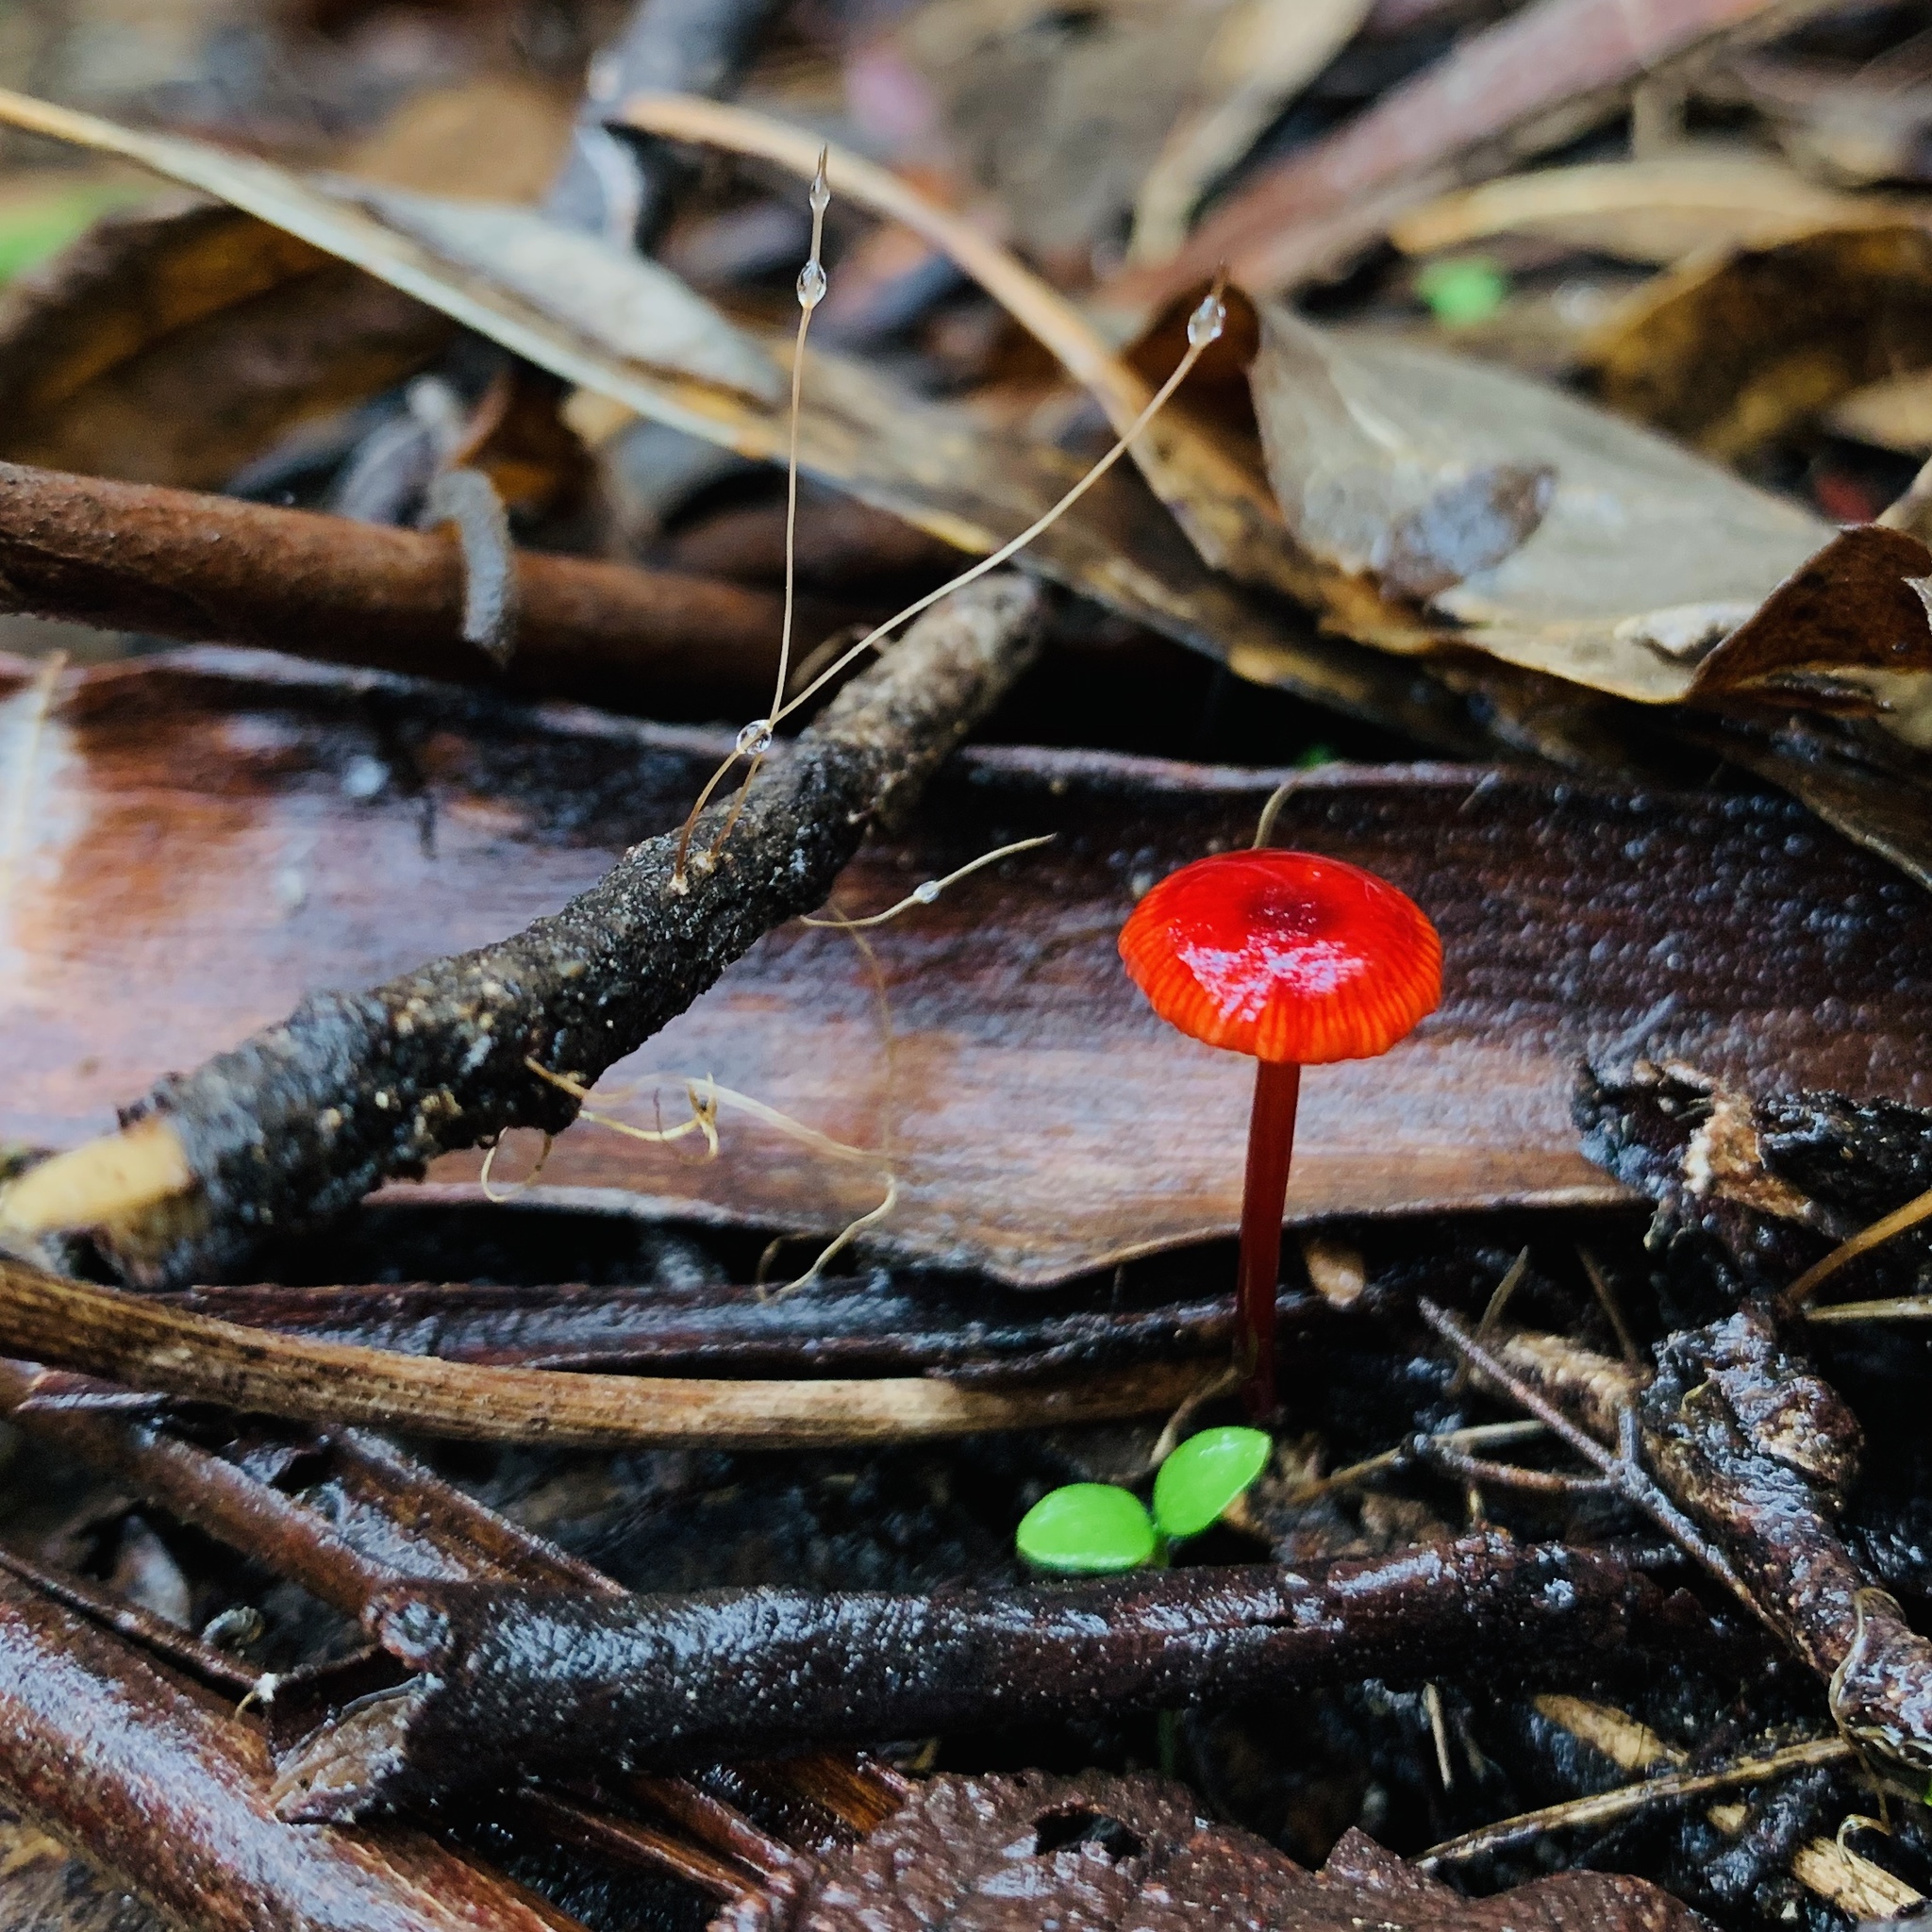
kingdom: Fungi
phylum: Basidiomycota
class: Agaricomycetes
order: Agaricales
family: Mycenaceae
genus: Cruentomycena
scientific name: Cruentomycena viscidocruenta
